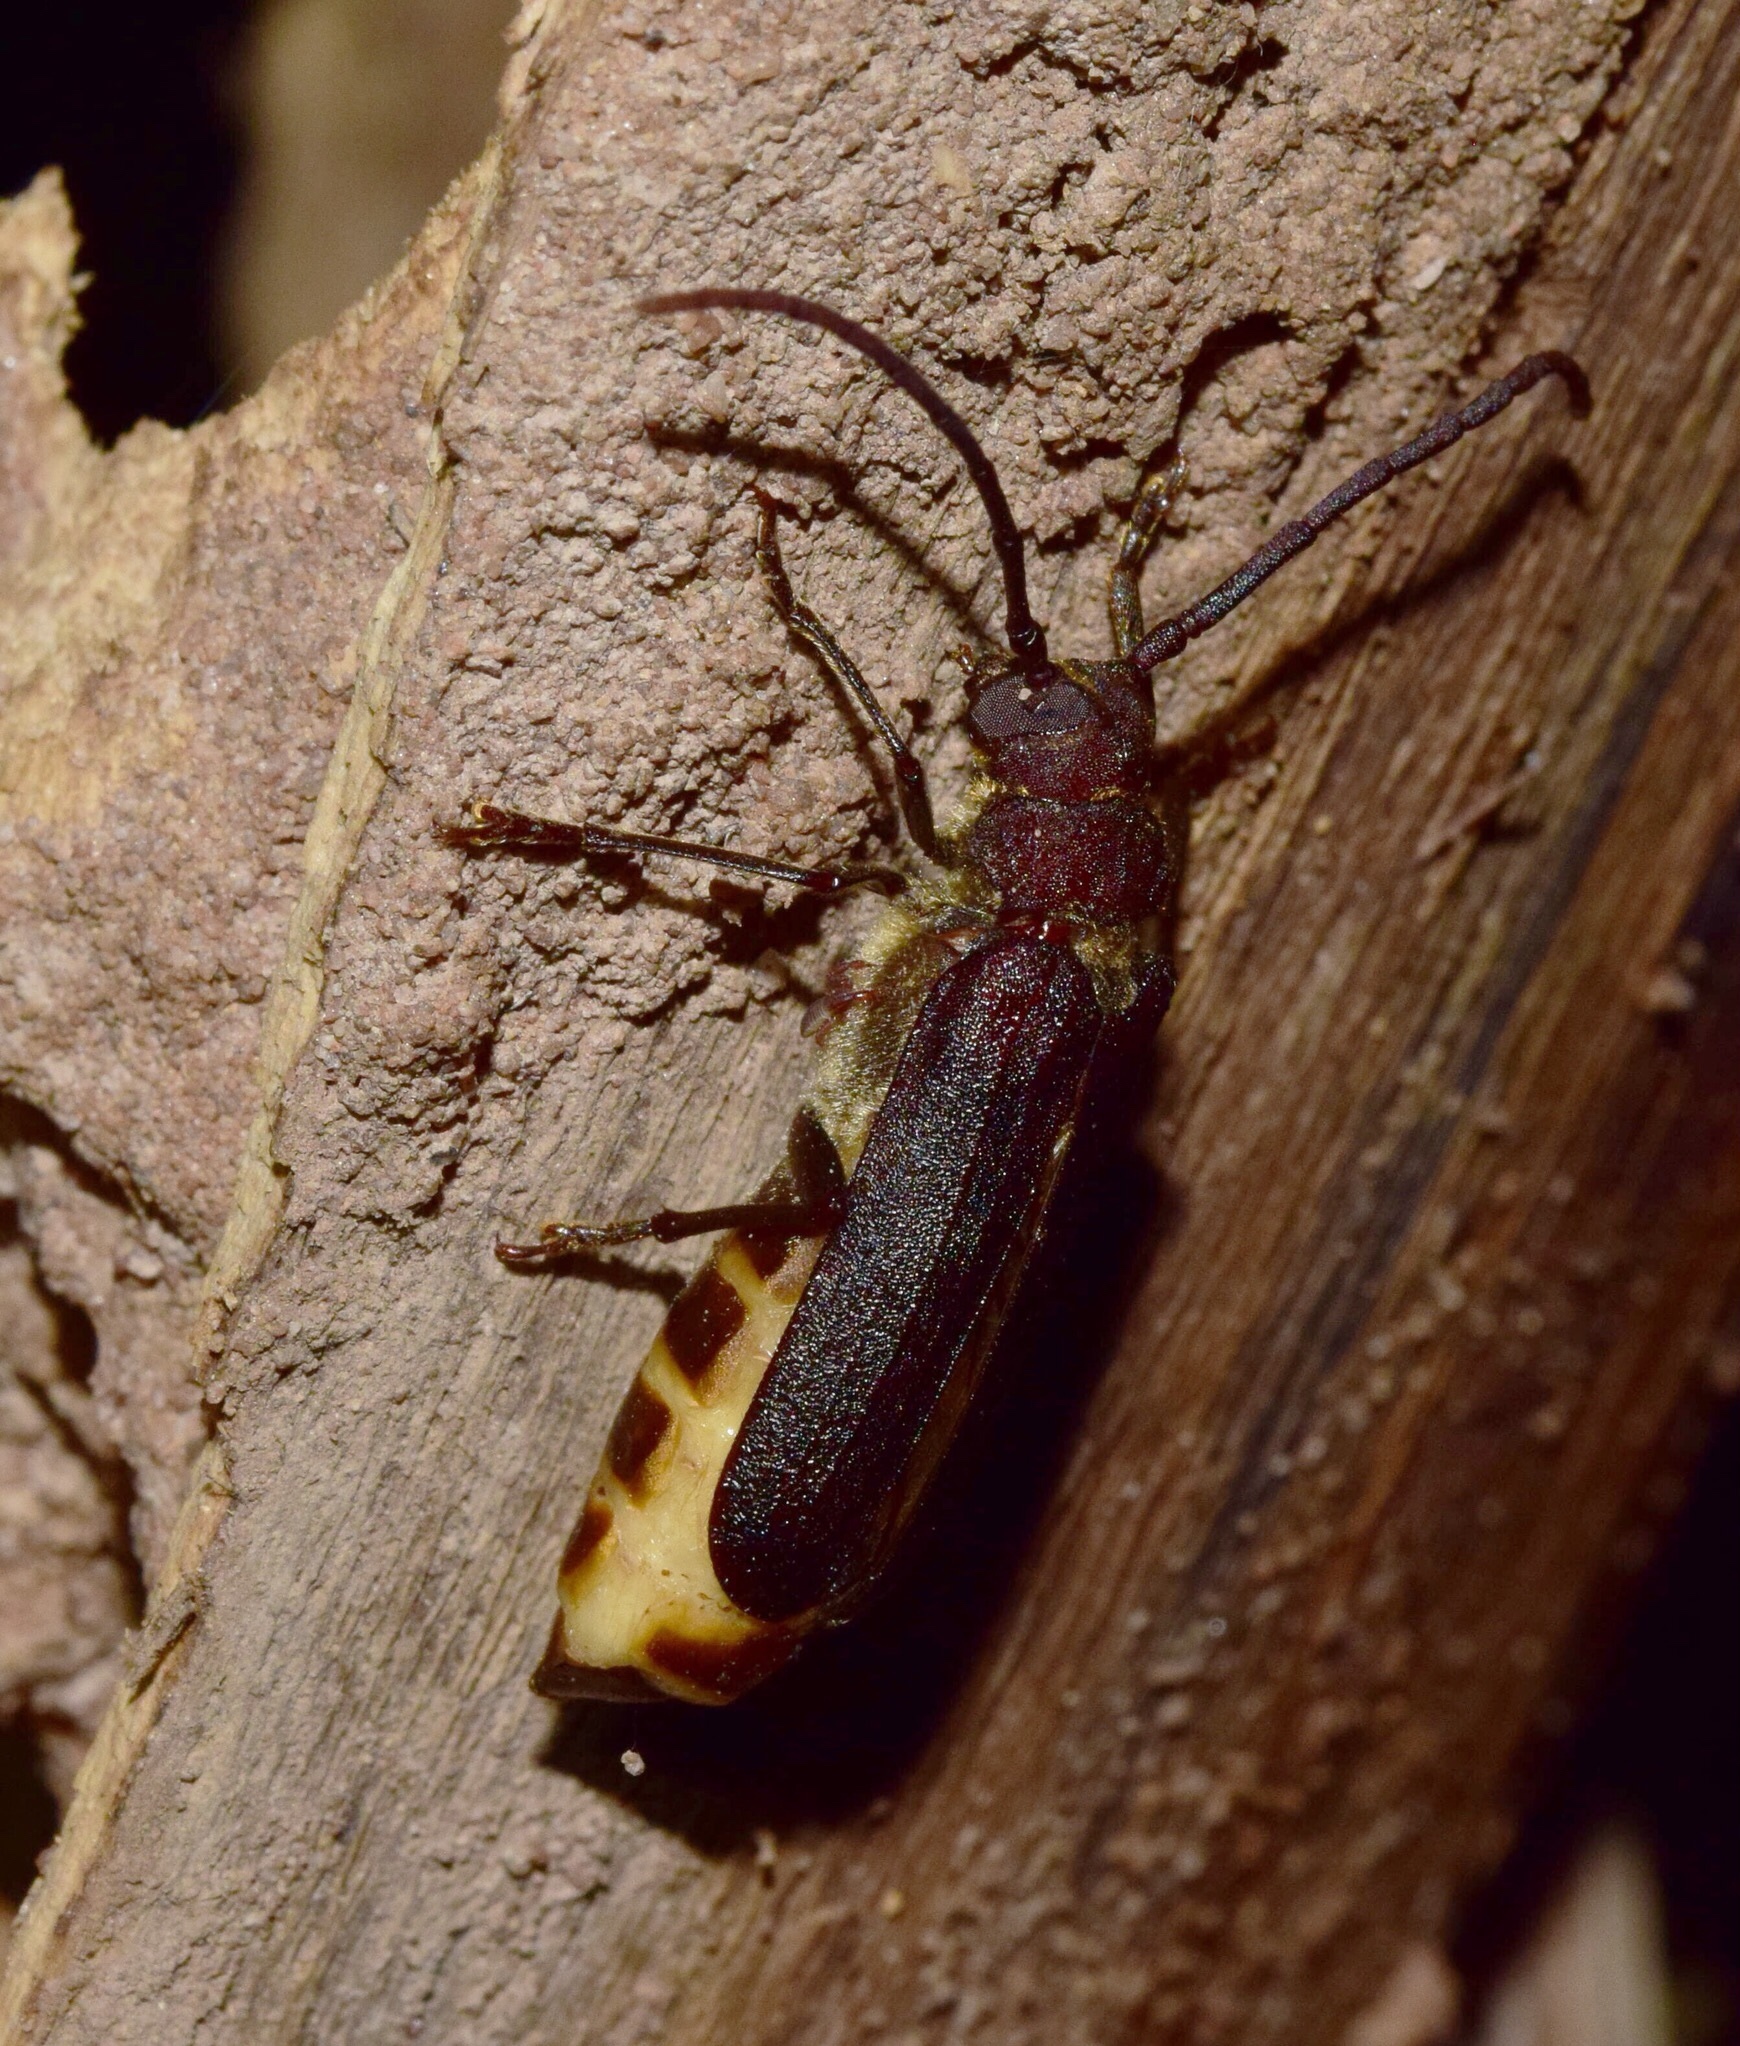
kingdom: Animalia
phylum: Arthropoda
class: Insecta
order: Coleoptera
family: Cerambycidae
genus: Bouyerus
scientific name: Bouyerus metallicus
